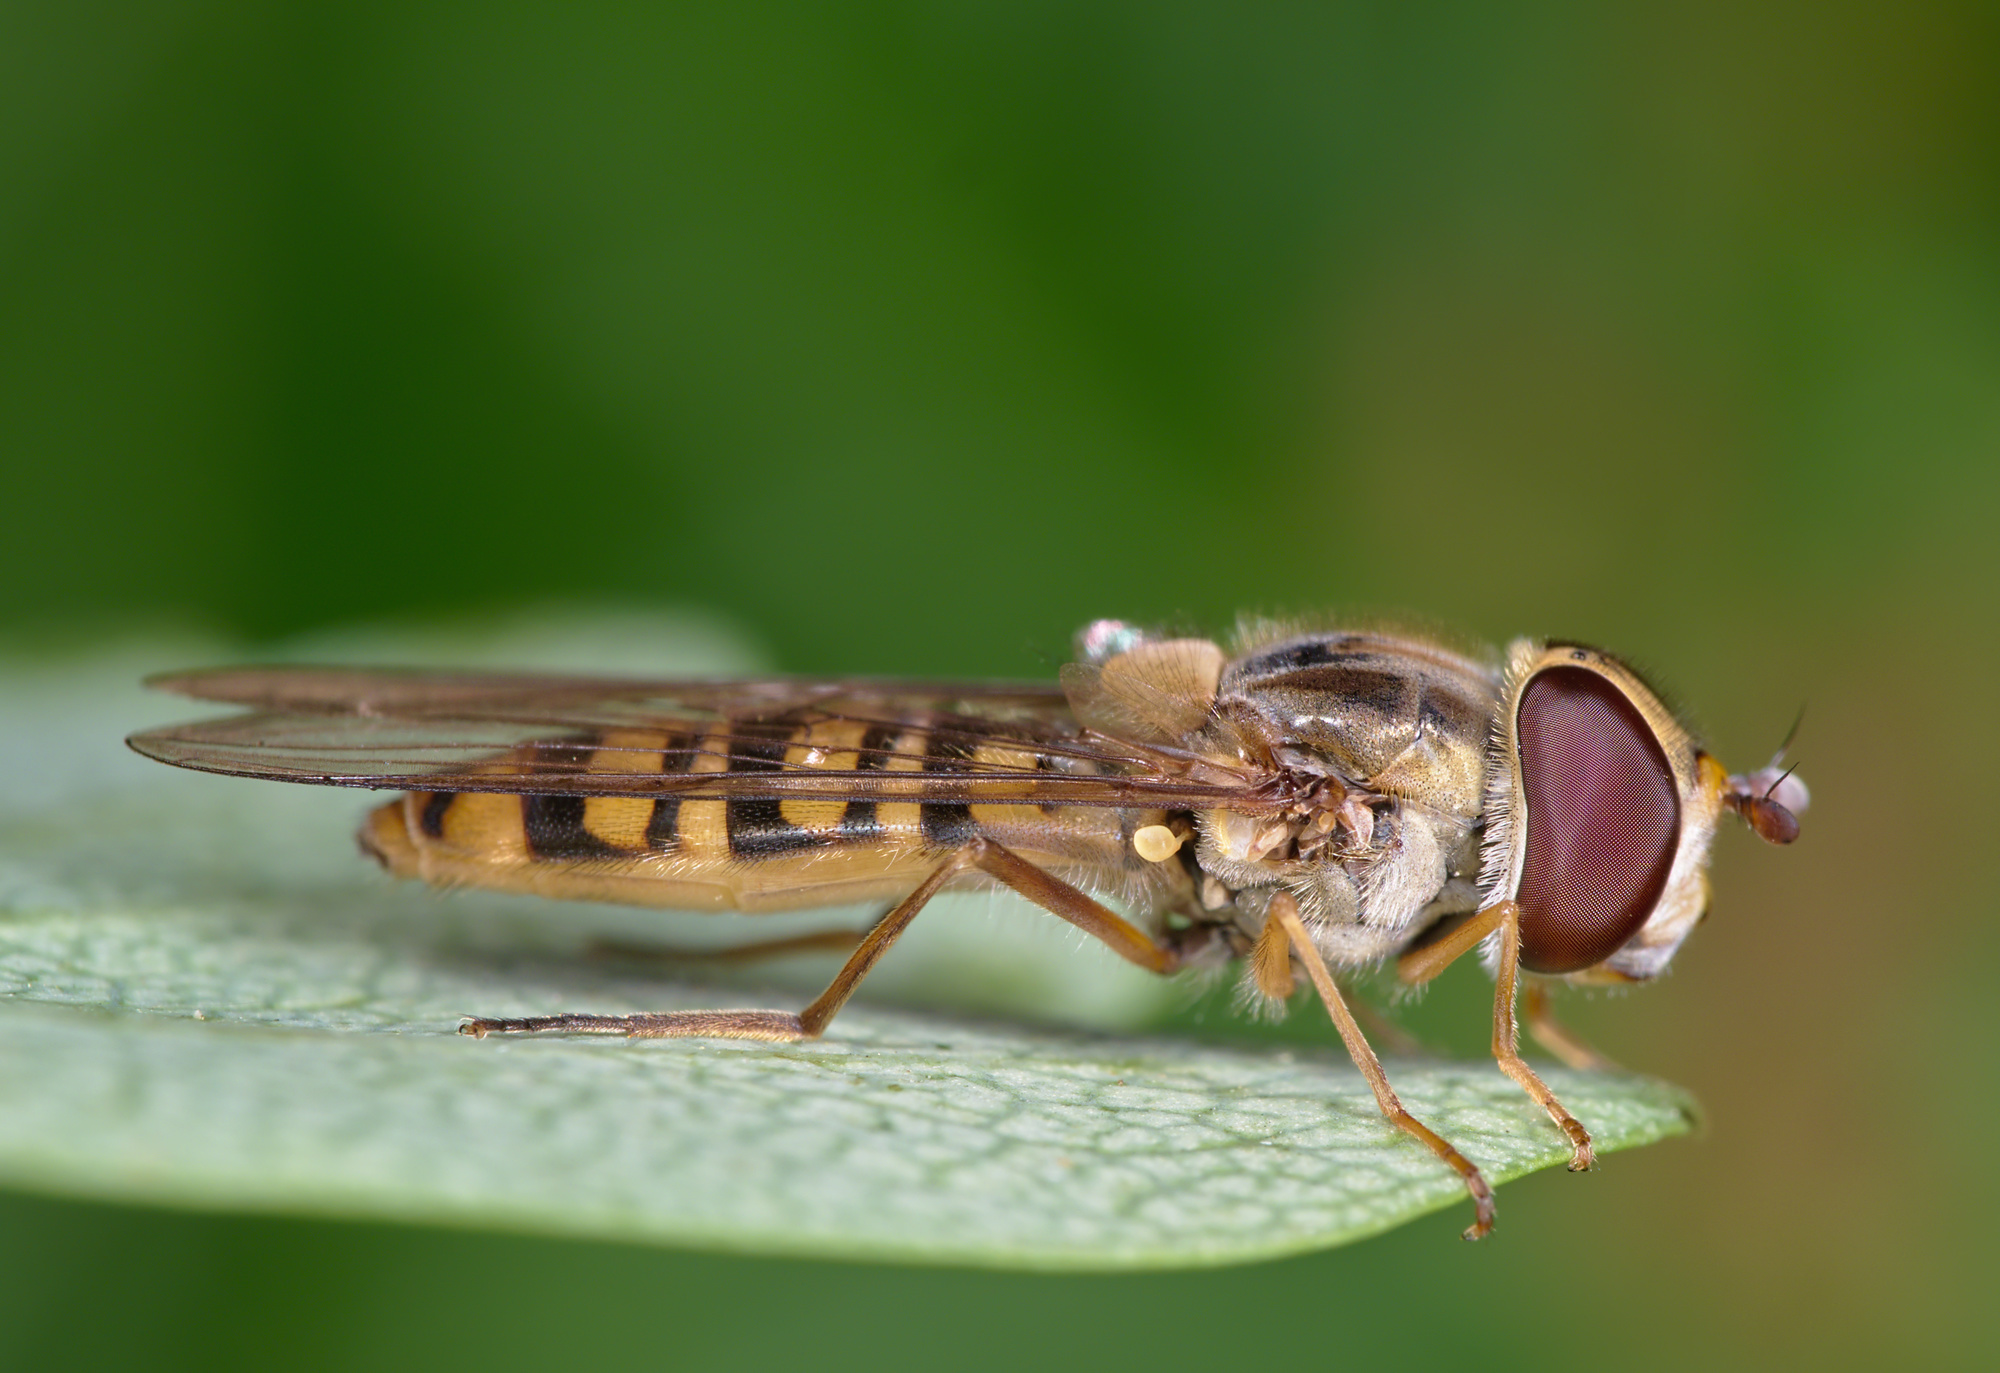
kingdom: Animalia
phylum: Arthropoda
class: Insecta
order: Diptera
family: Syrphidae
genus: Episyrphus
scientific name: Episyrphus balteatus
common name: Marmalade hoverfly
